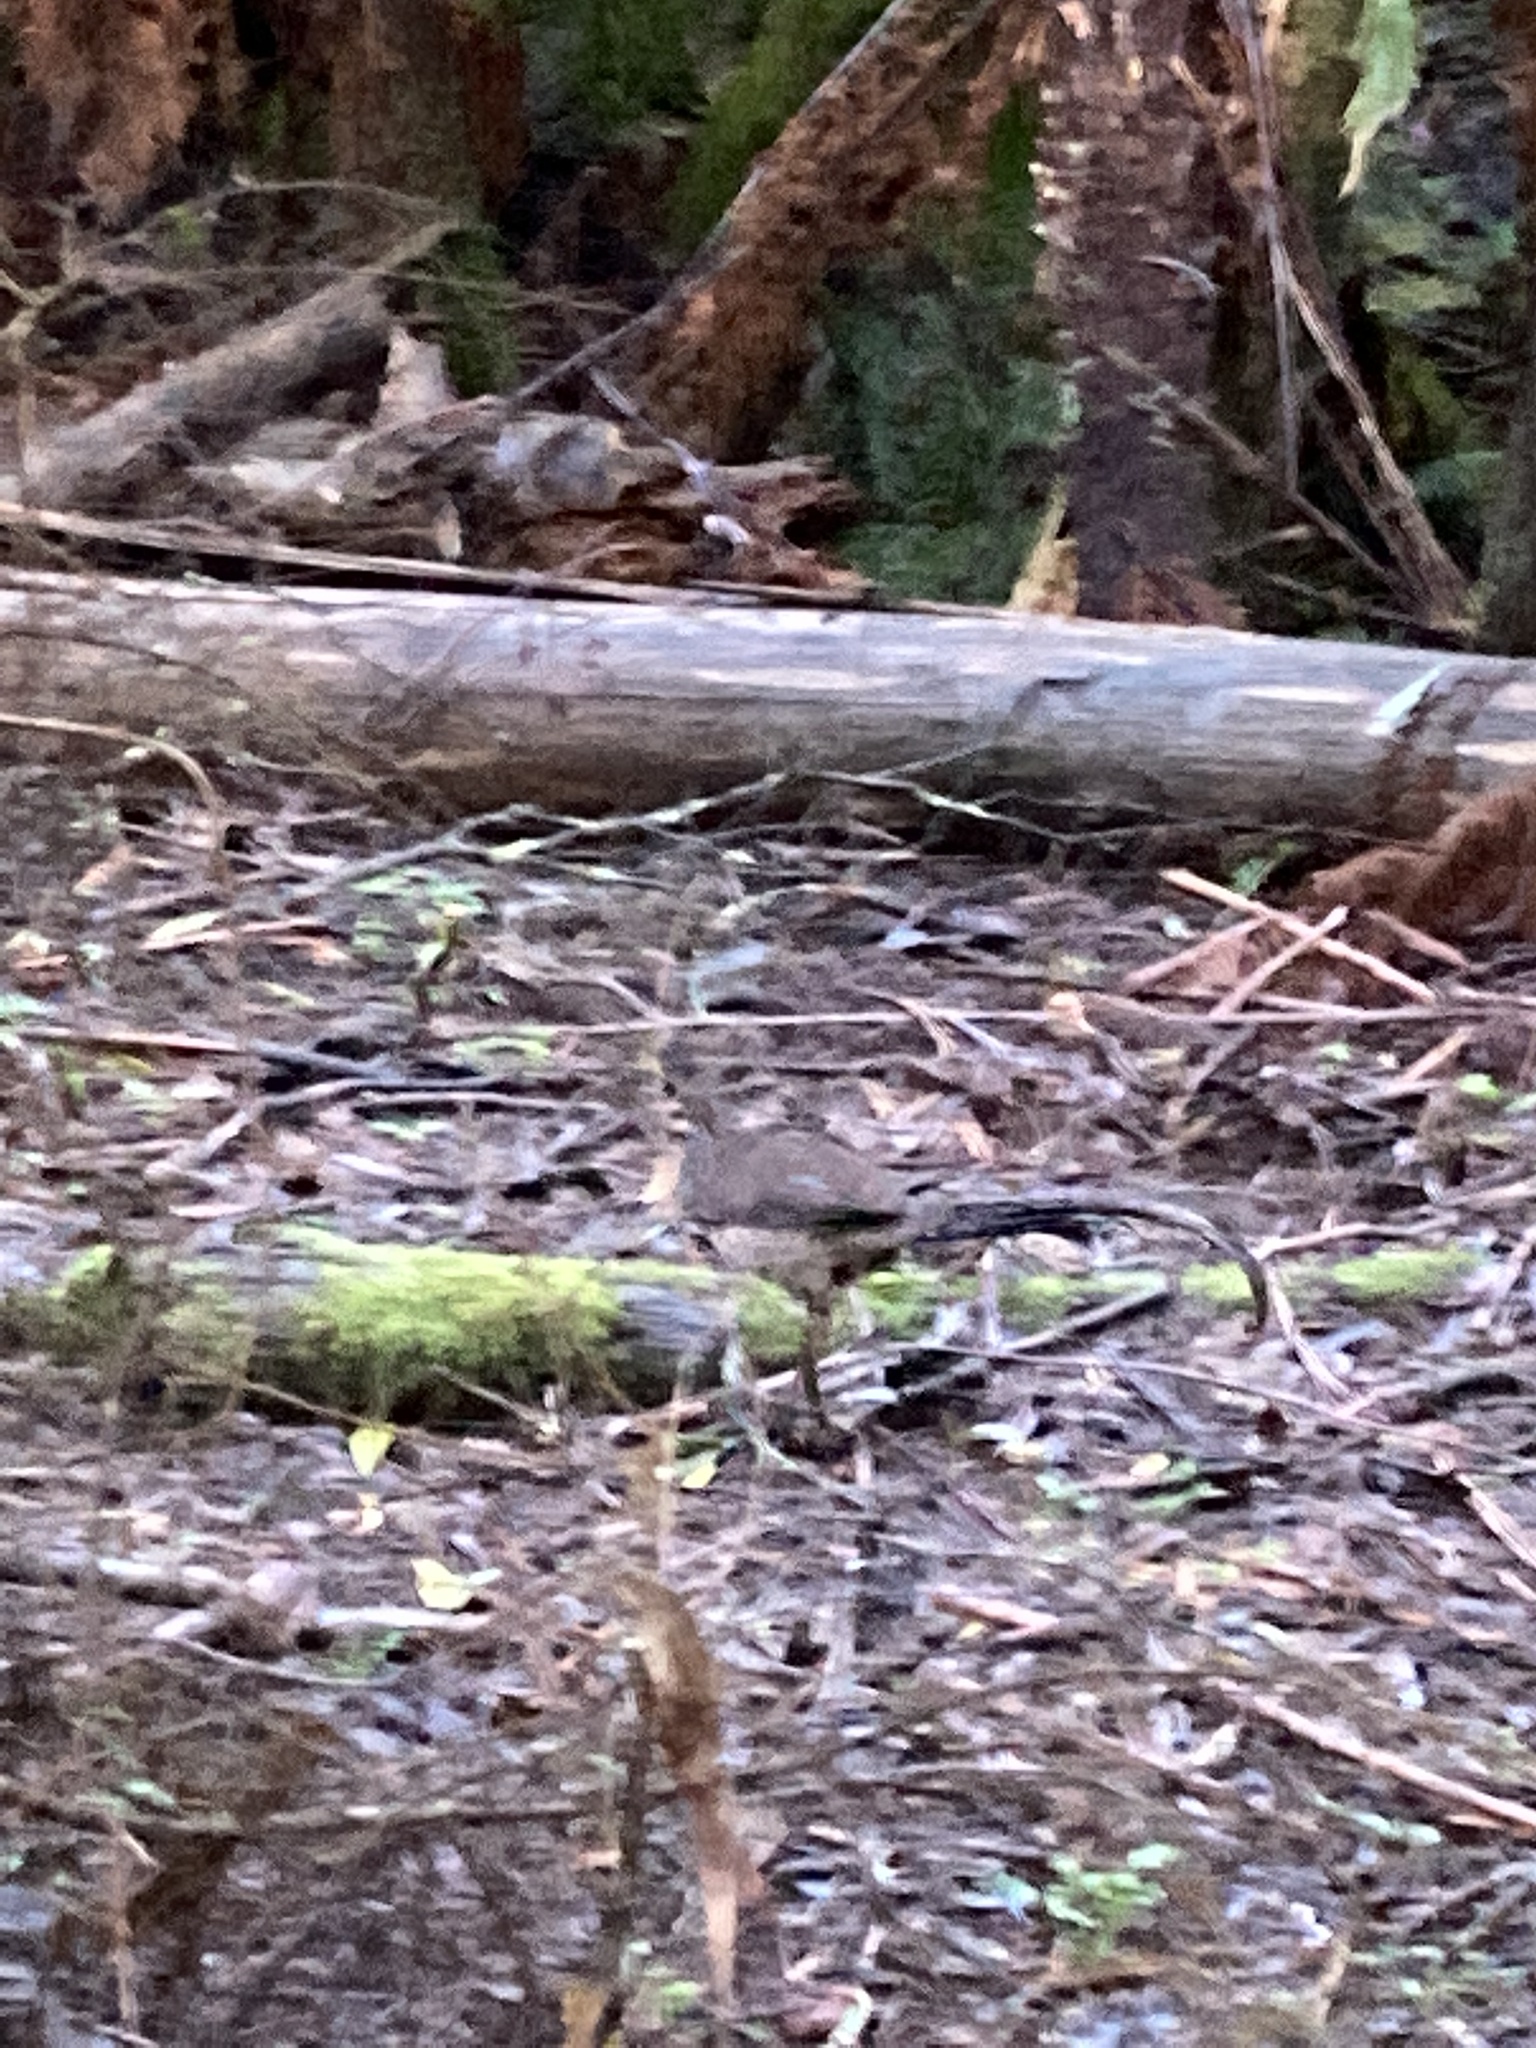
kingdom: Animalia
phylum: Chordata
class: Aves
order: Passeriformes
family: Menuridae
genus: Menura
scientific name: Menura novaehollandiae
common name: Superb lyrebird
